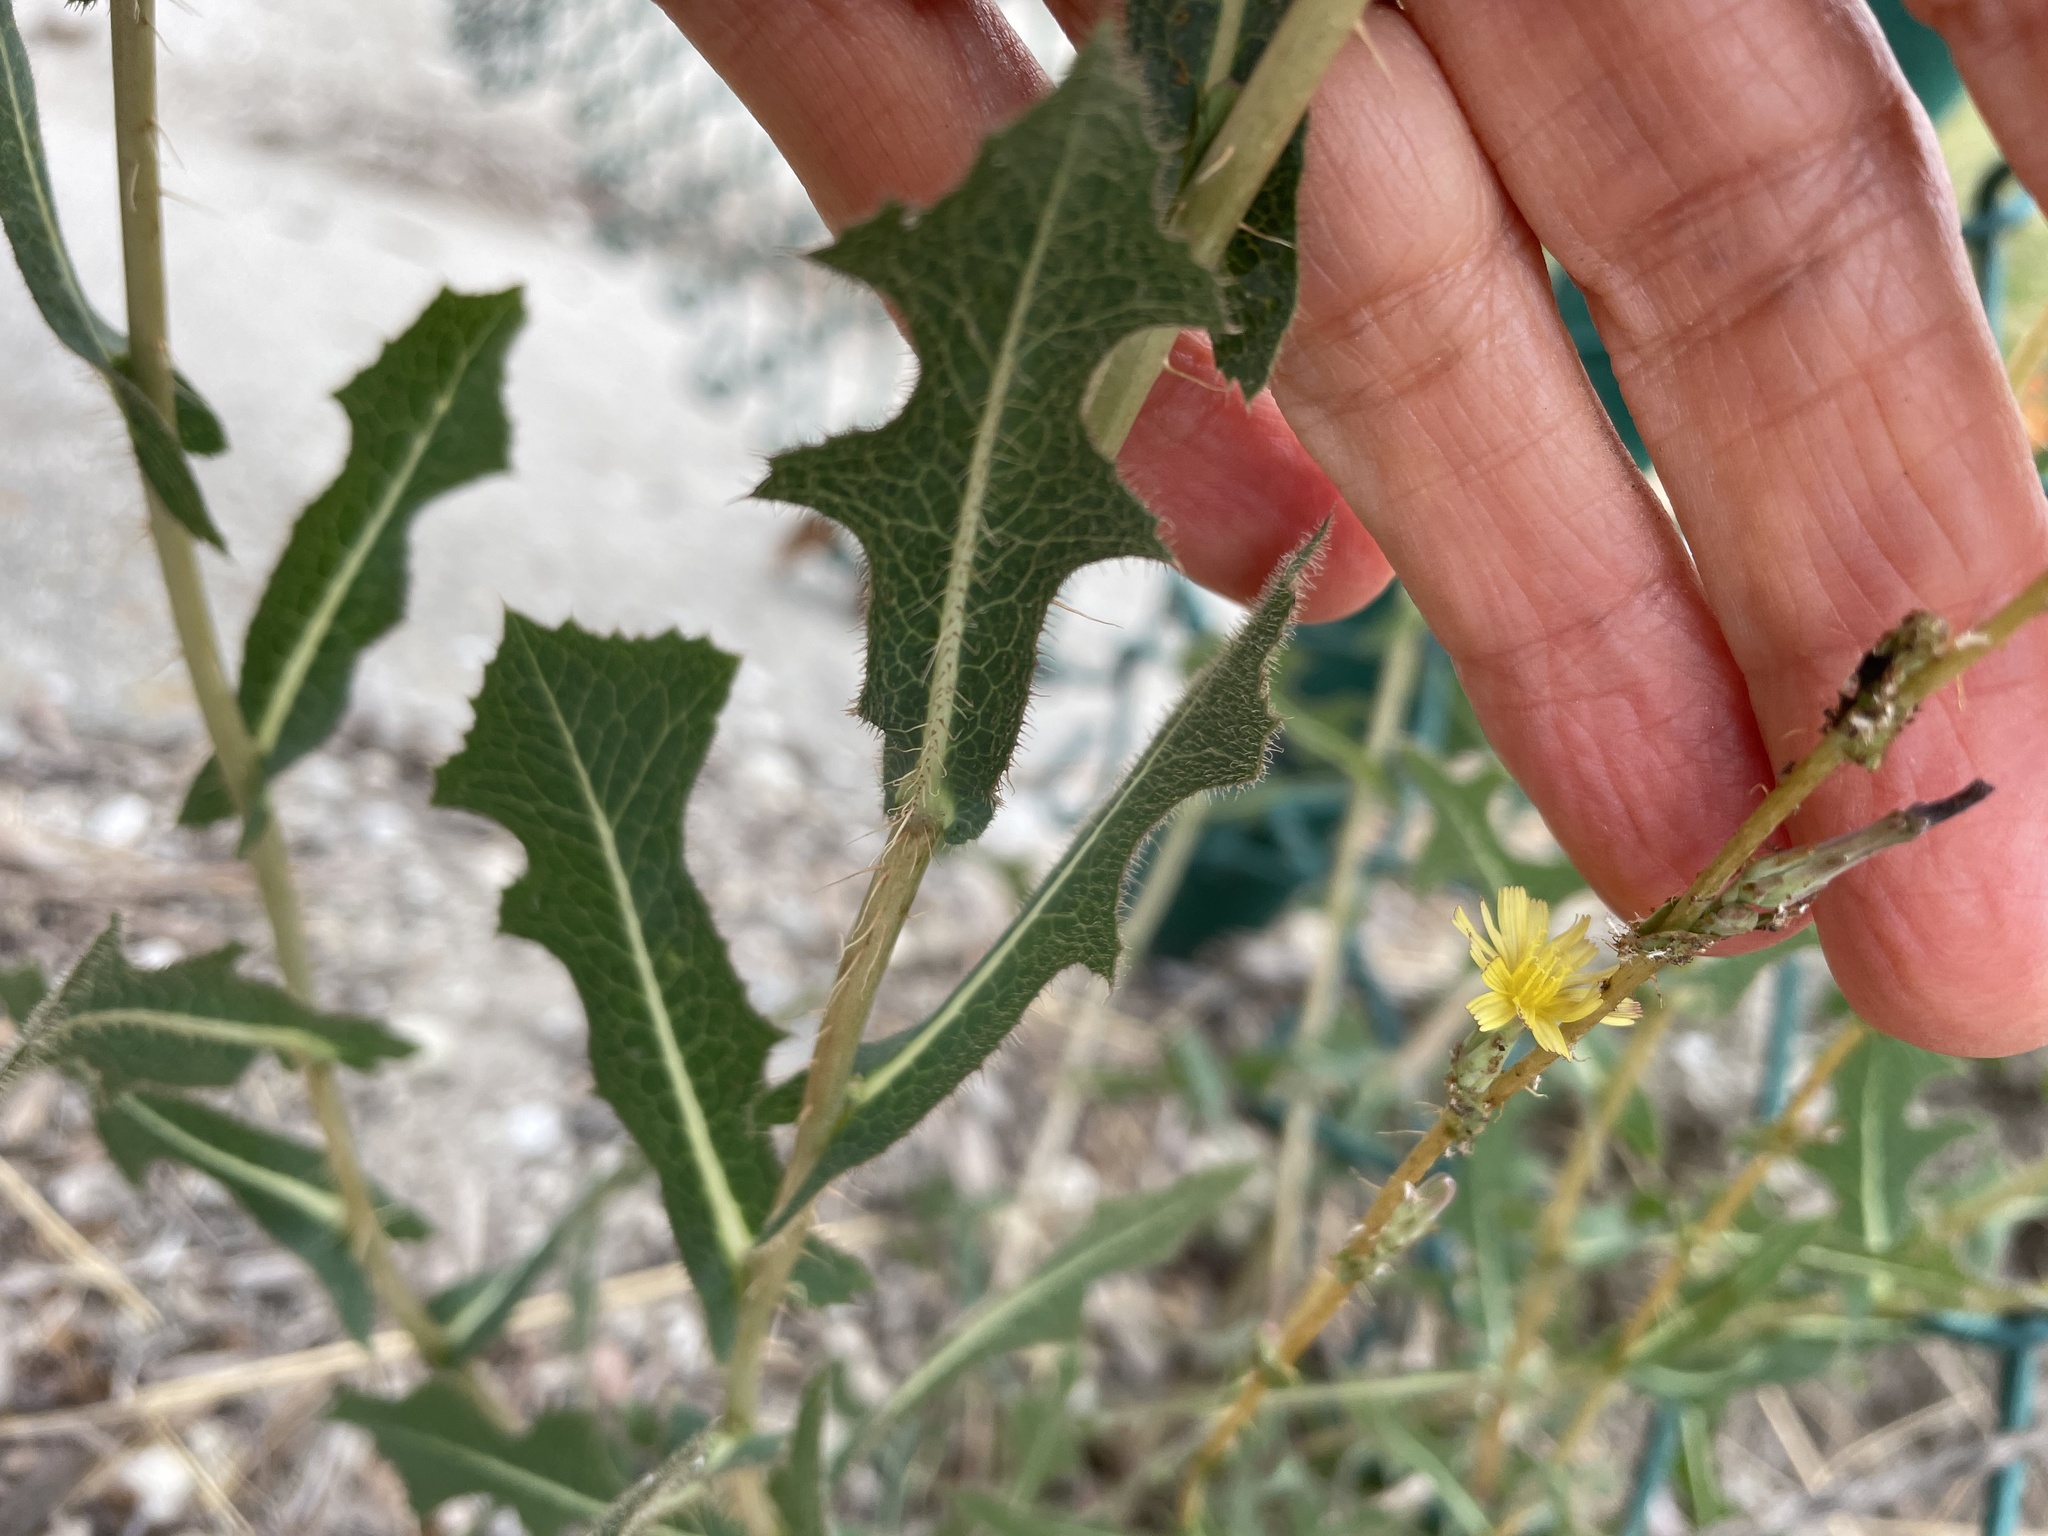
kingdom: Plantae
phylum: Tracheophyta
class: Magnoliopsida
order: Asterales
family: Asteraceae
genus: Lactuca
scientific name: Lactuca serriola
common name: Prickly lettuce
